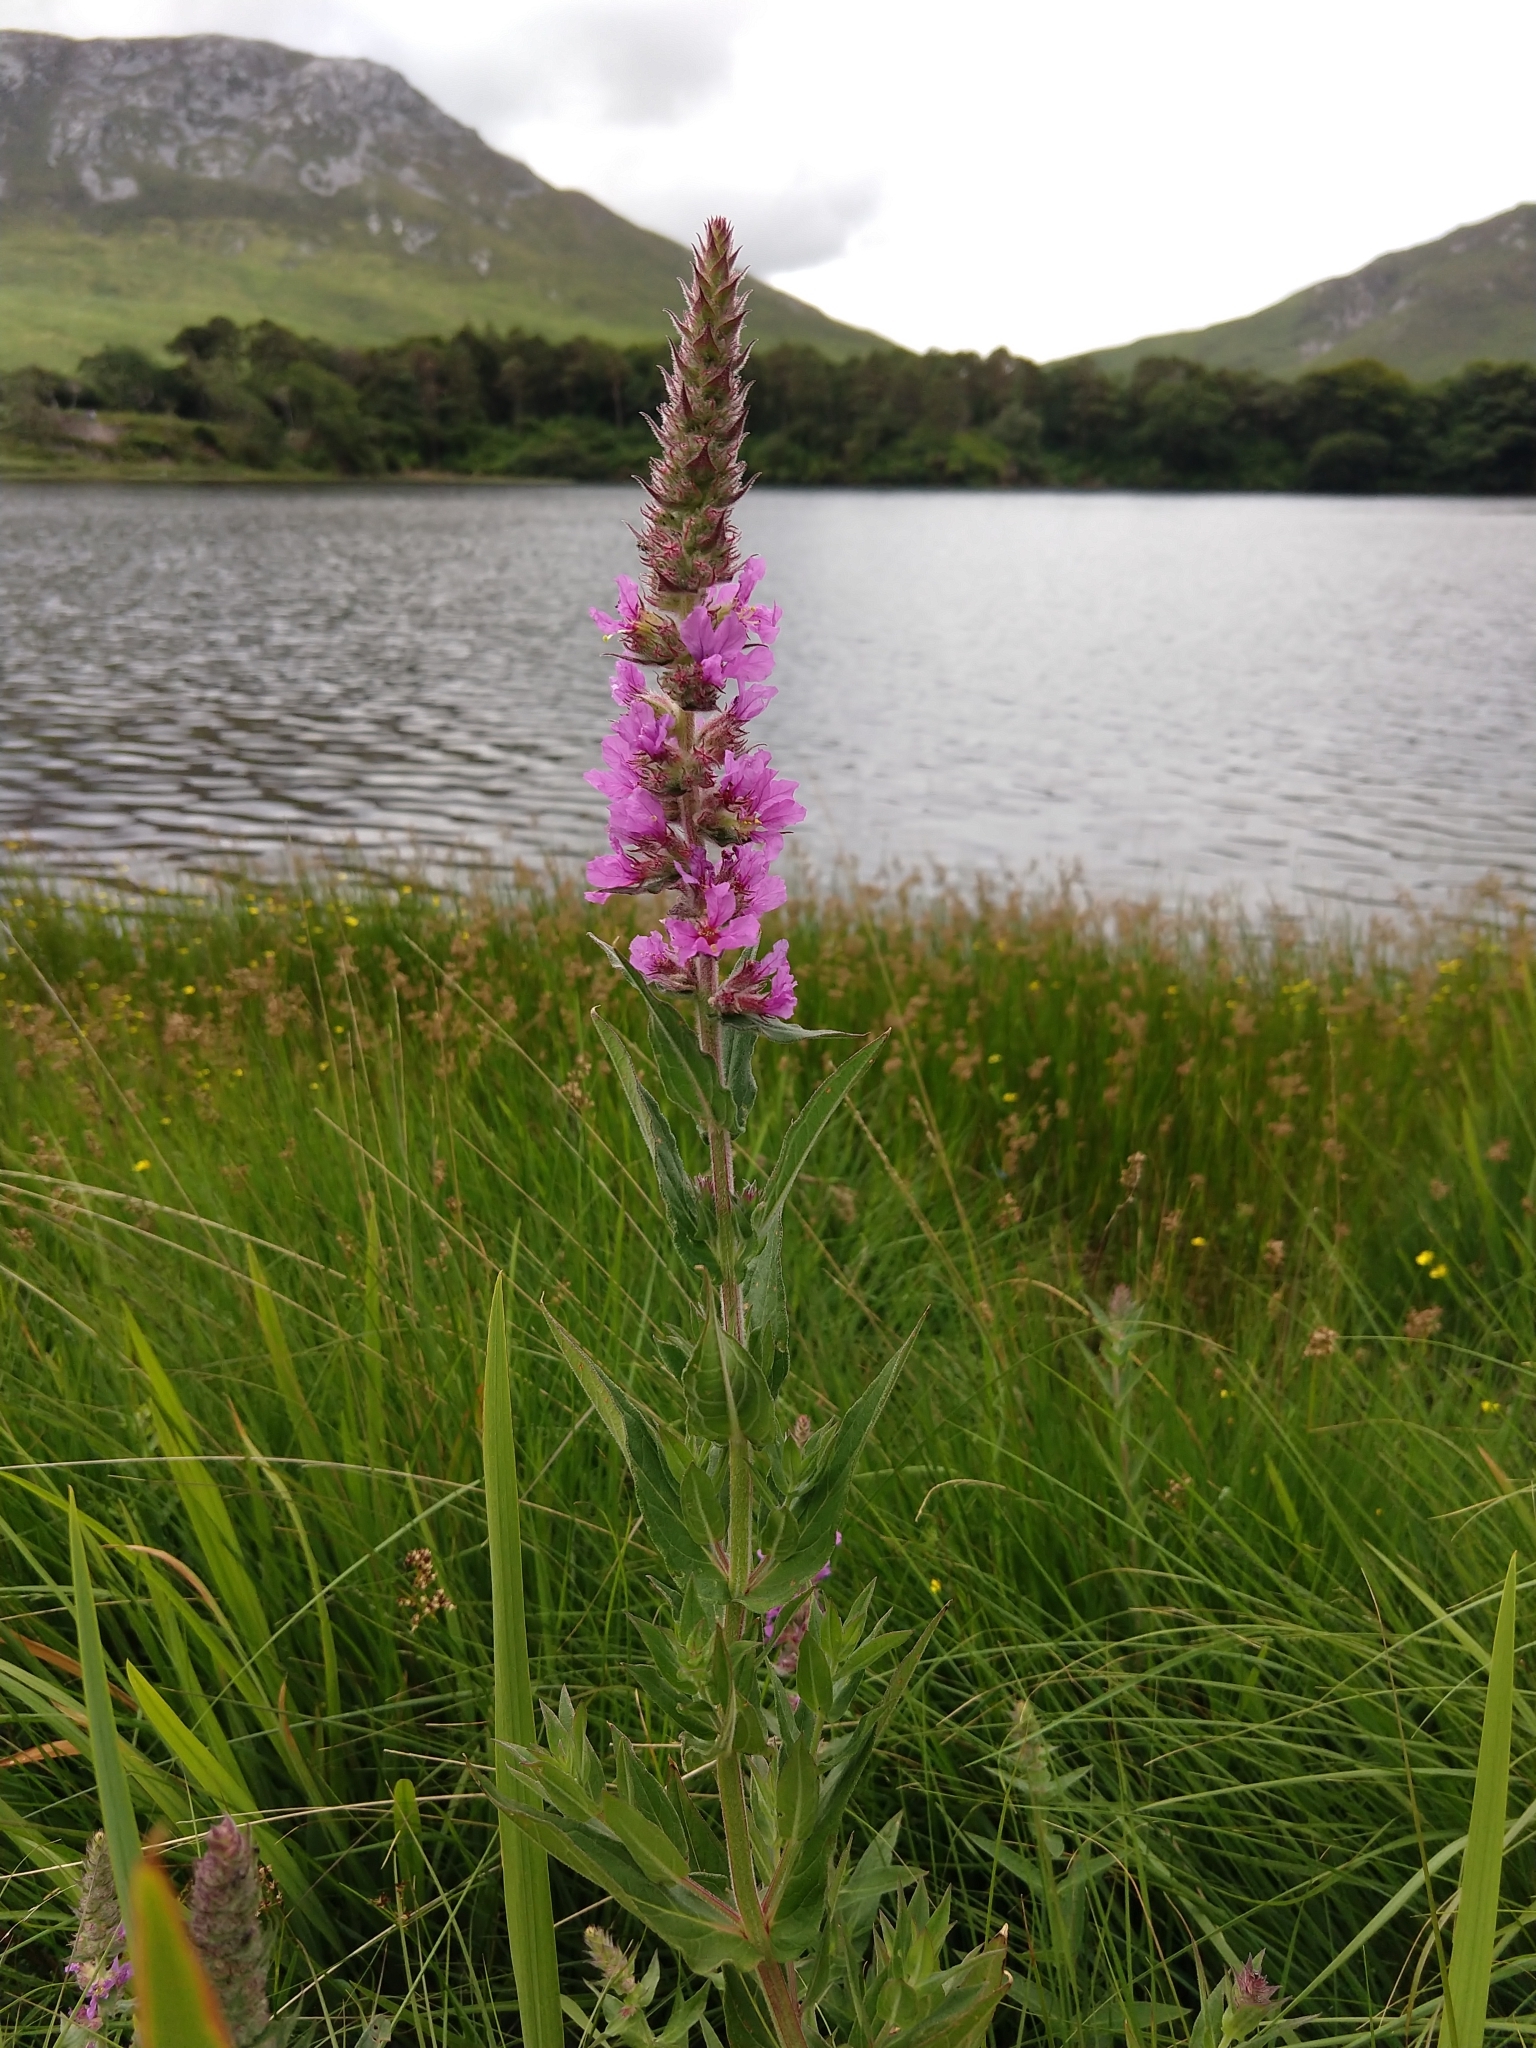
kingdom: Plantae
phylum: Tracheophyta
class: Magnoliopsida
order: Myrtales
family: Lythraceae
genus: Lythrum
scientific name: Lythrum salicaria
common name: Purple loosestrife
